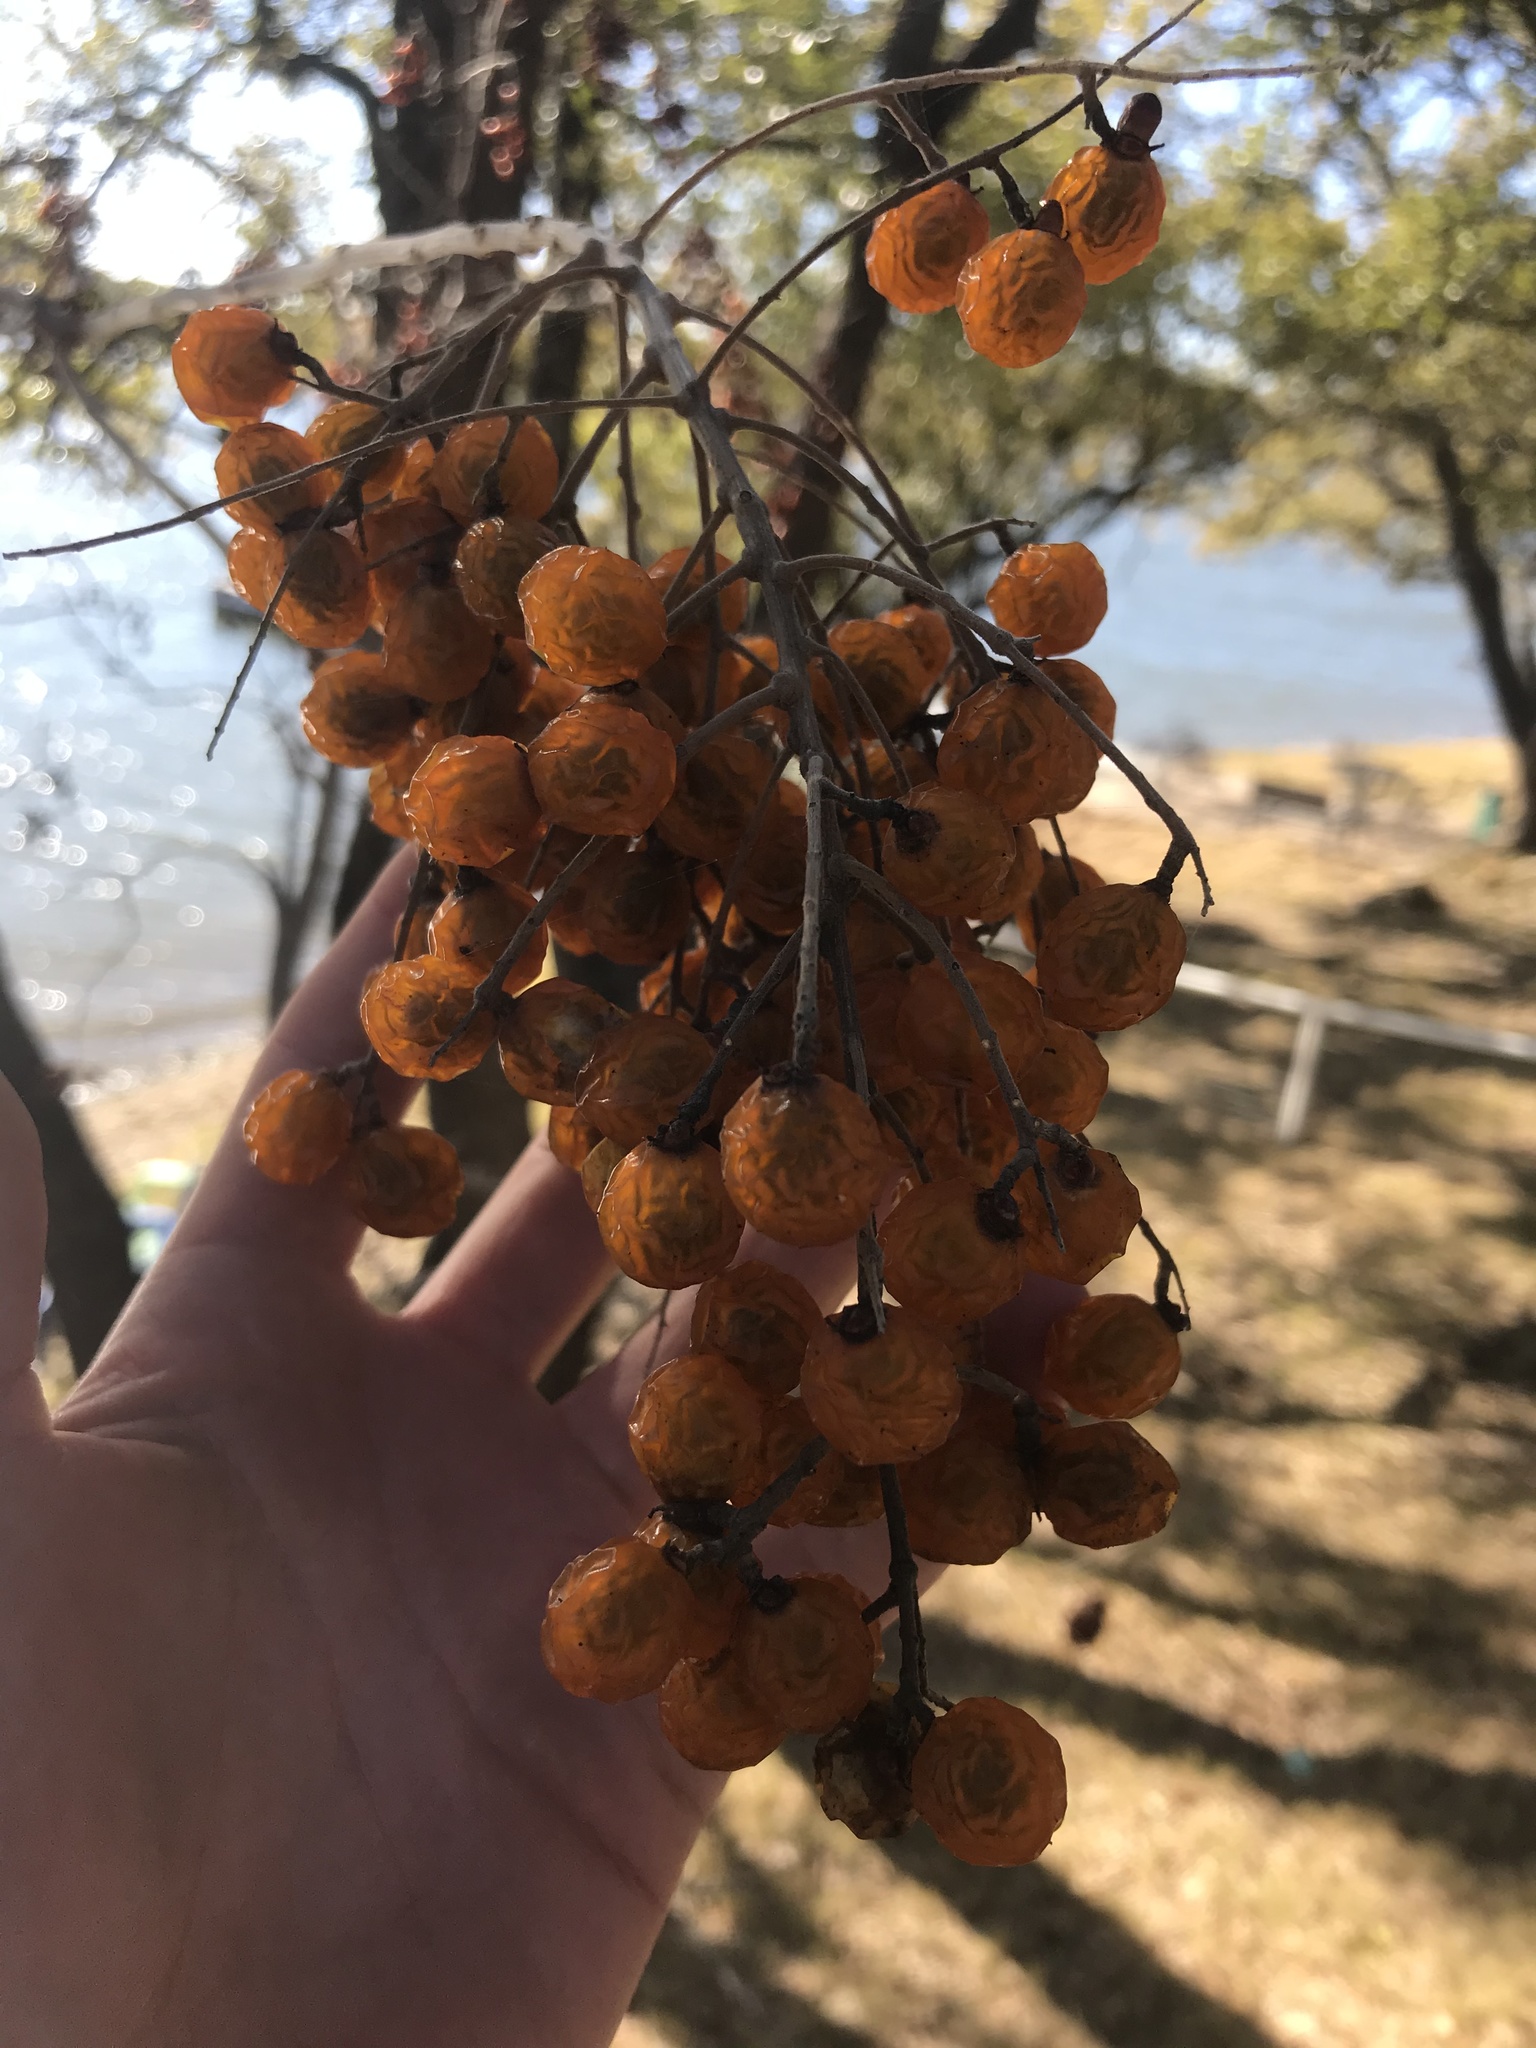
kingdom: Plantae
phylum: Tracheophyta
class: Magnoliopsida
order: Sapindales
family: Sapindaceae
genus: Sapindus
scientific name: Sapindus drummondii
